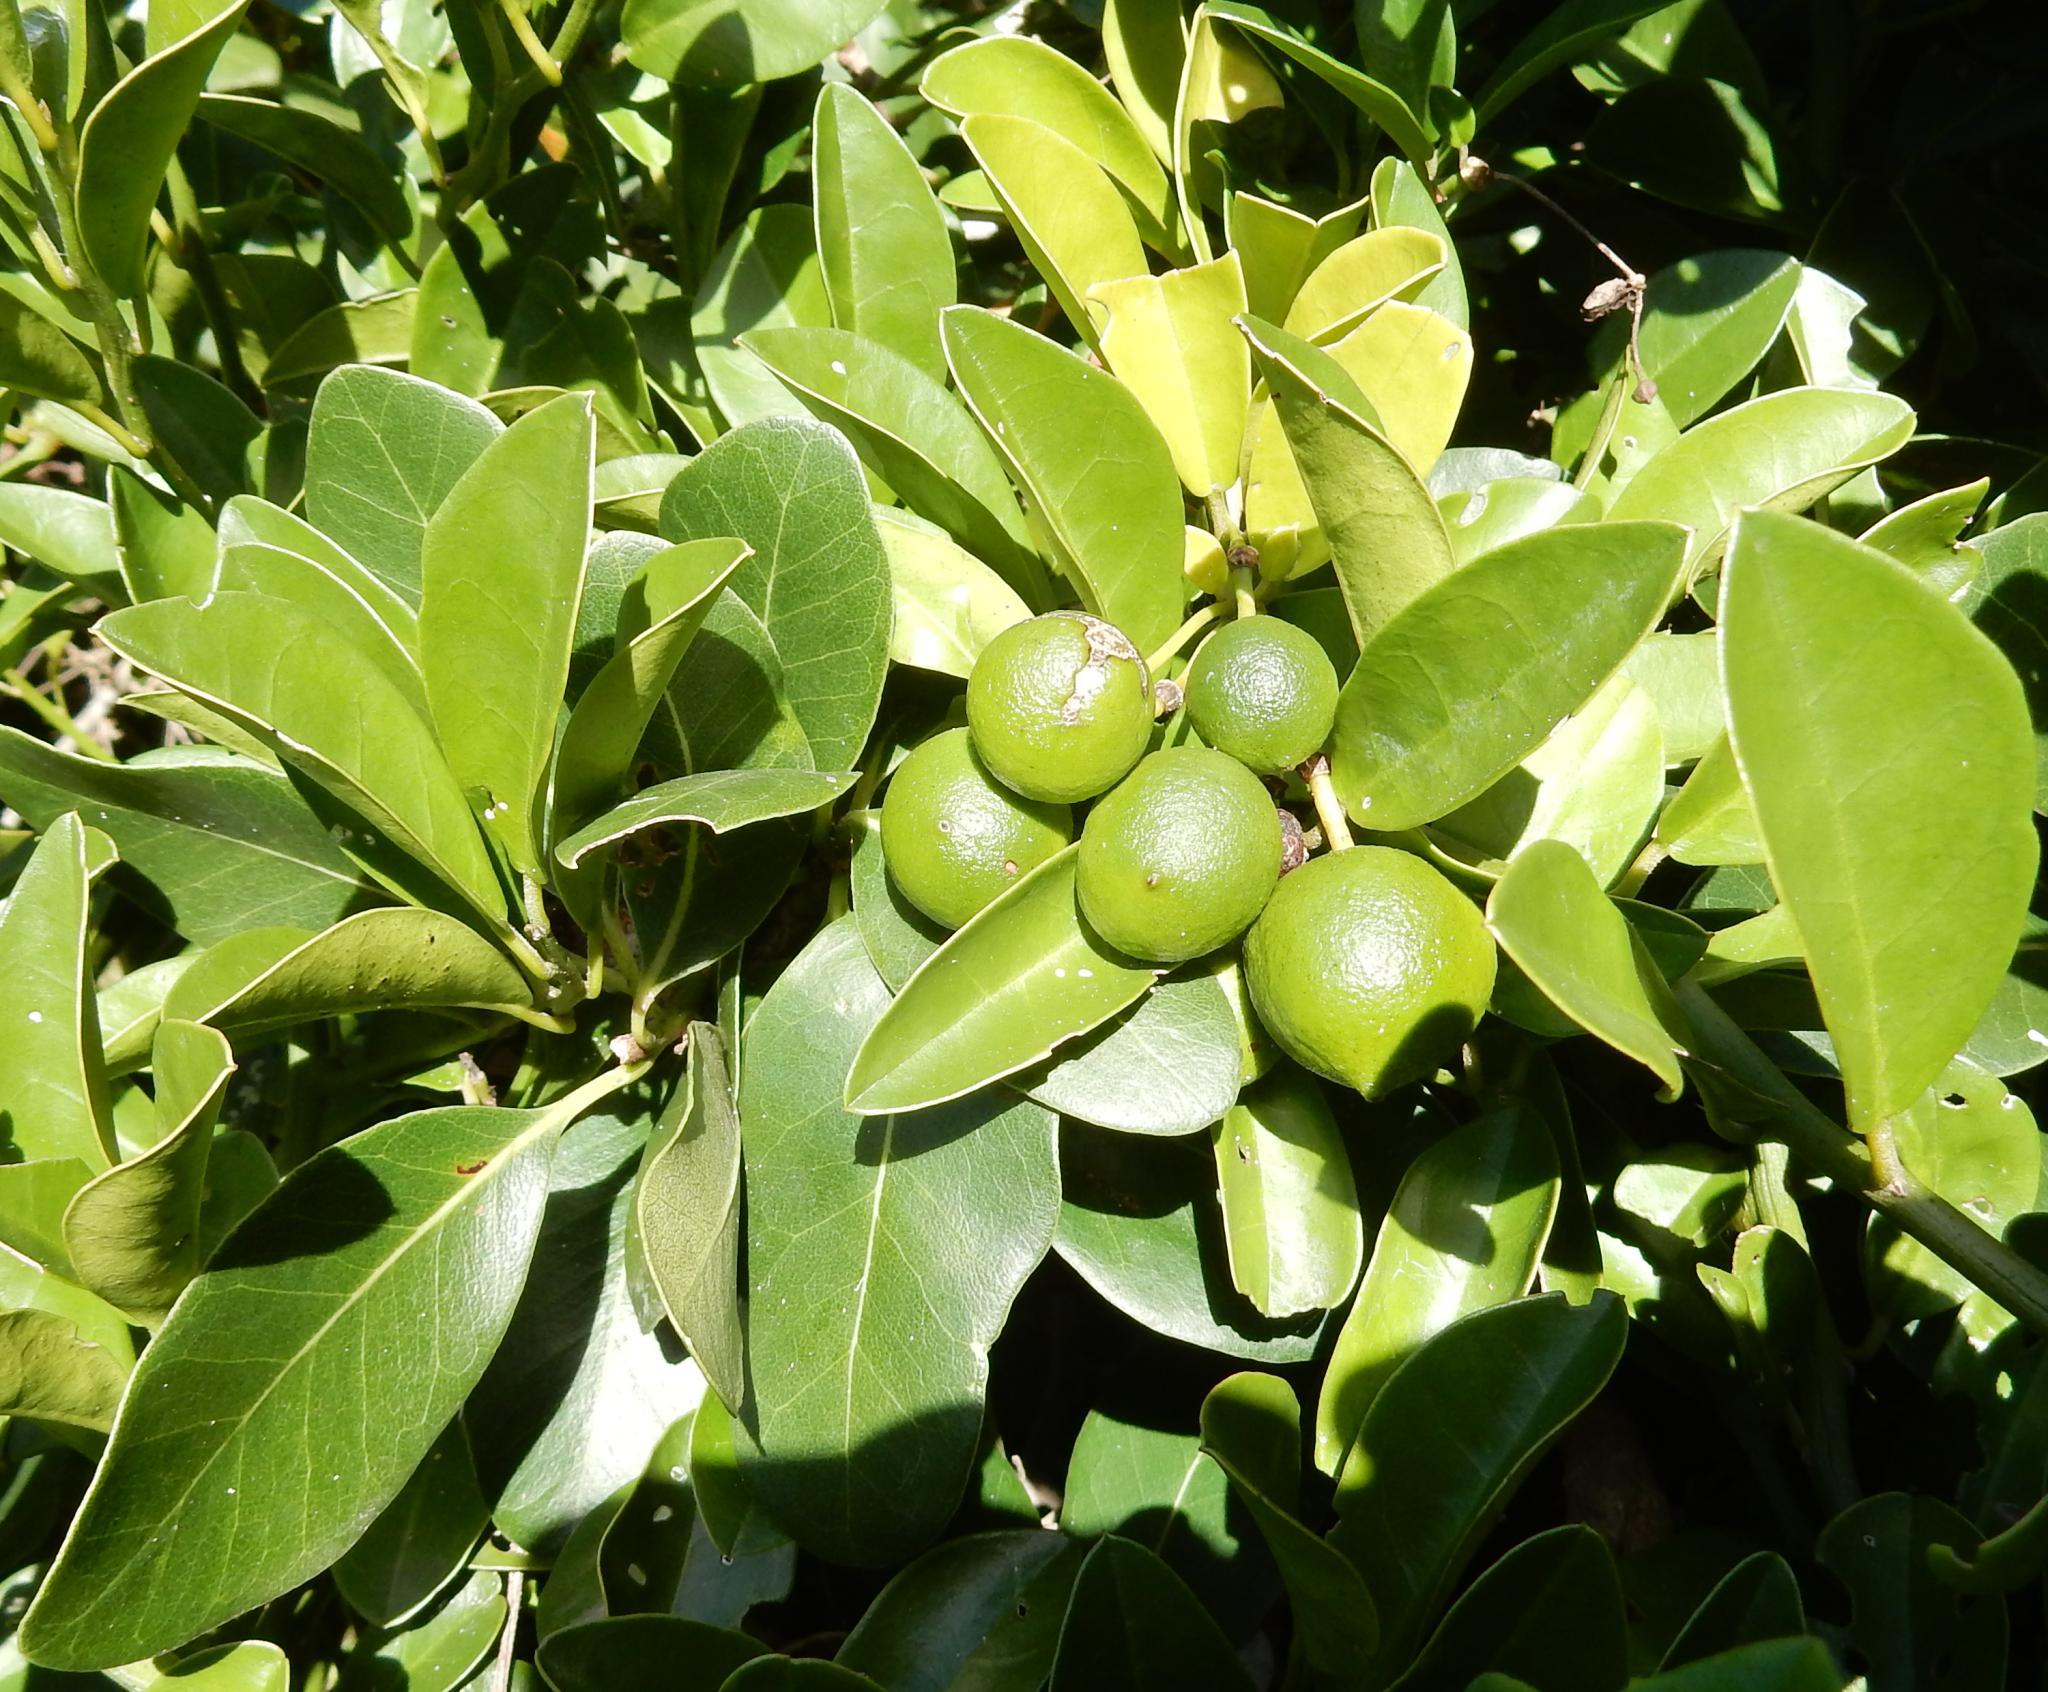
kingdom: Plantae
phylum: Tracheophyta
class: Magnoliopsida
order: Brassicales
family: Capparaceae
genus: Capparis
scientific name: Capparis sepiaria
